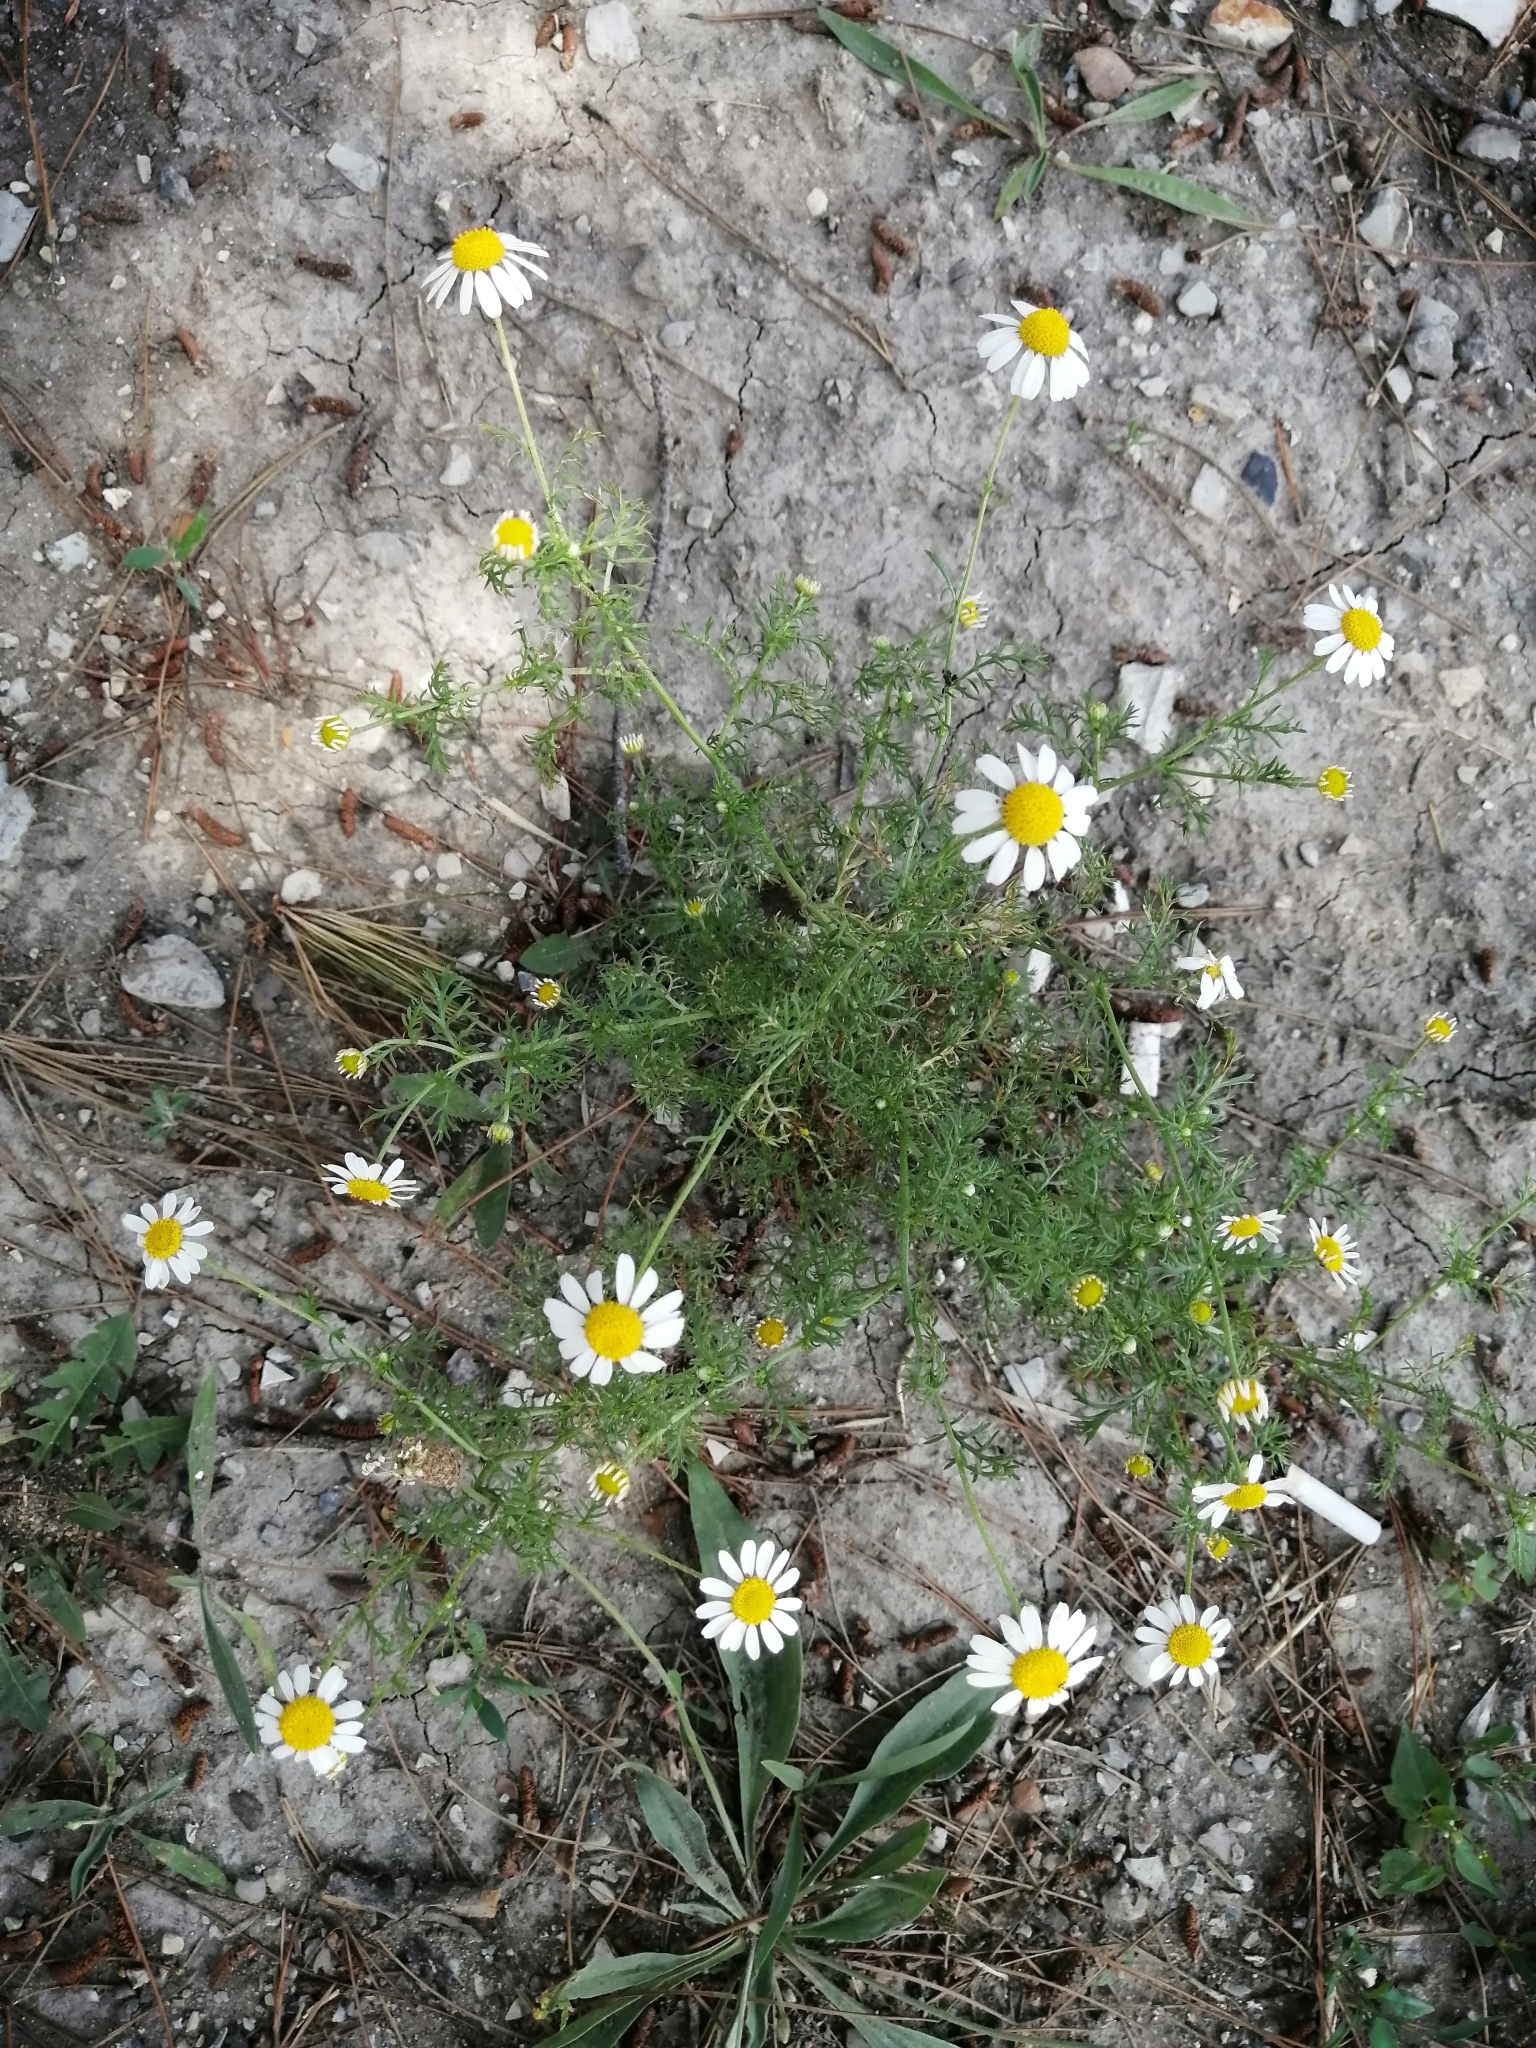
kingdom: Plantae
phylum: Tracheophyta
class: Magnoliopsida
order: Asterales
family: Asteraceae
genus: Tripleurospermum
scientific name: Tripleurospermum inodorum
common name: Scentless mayweed
